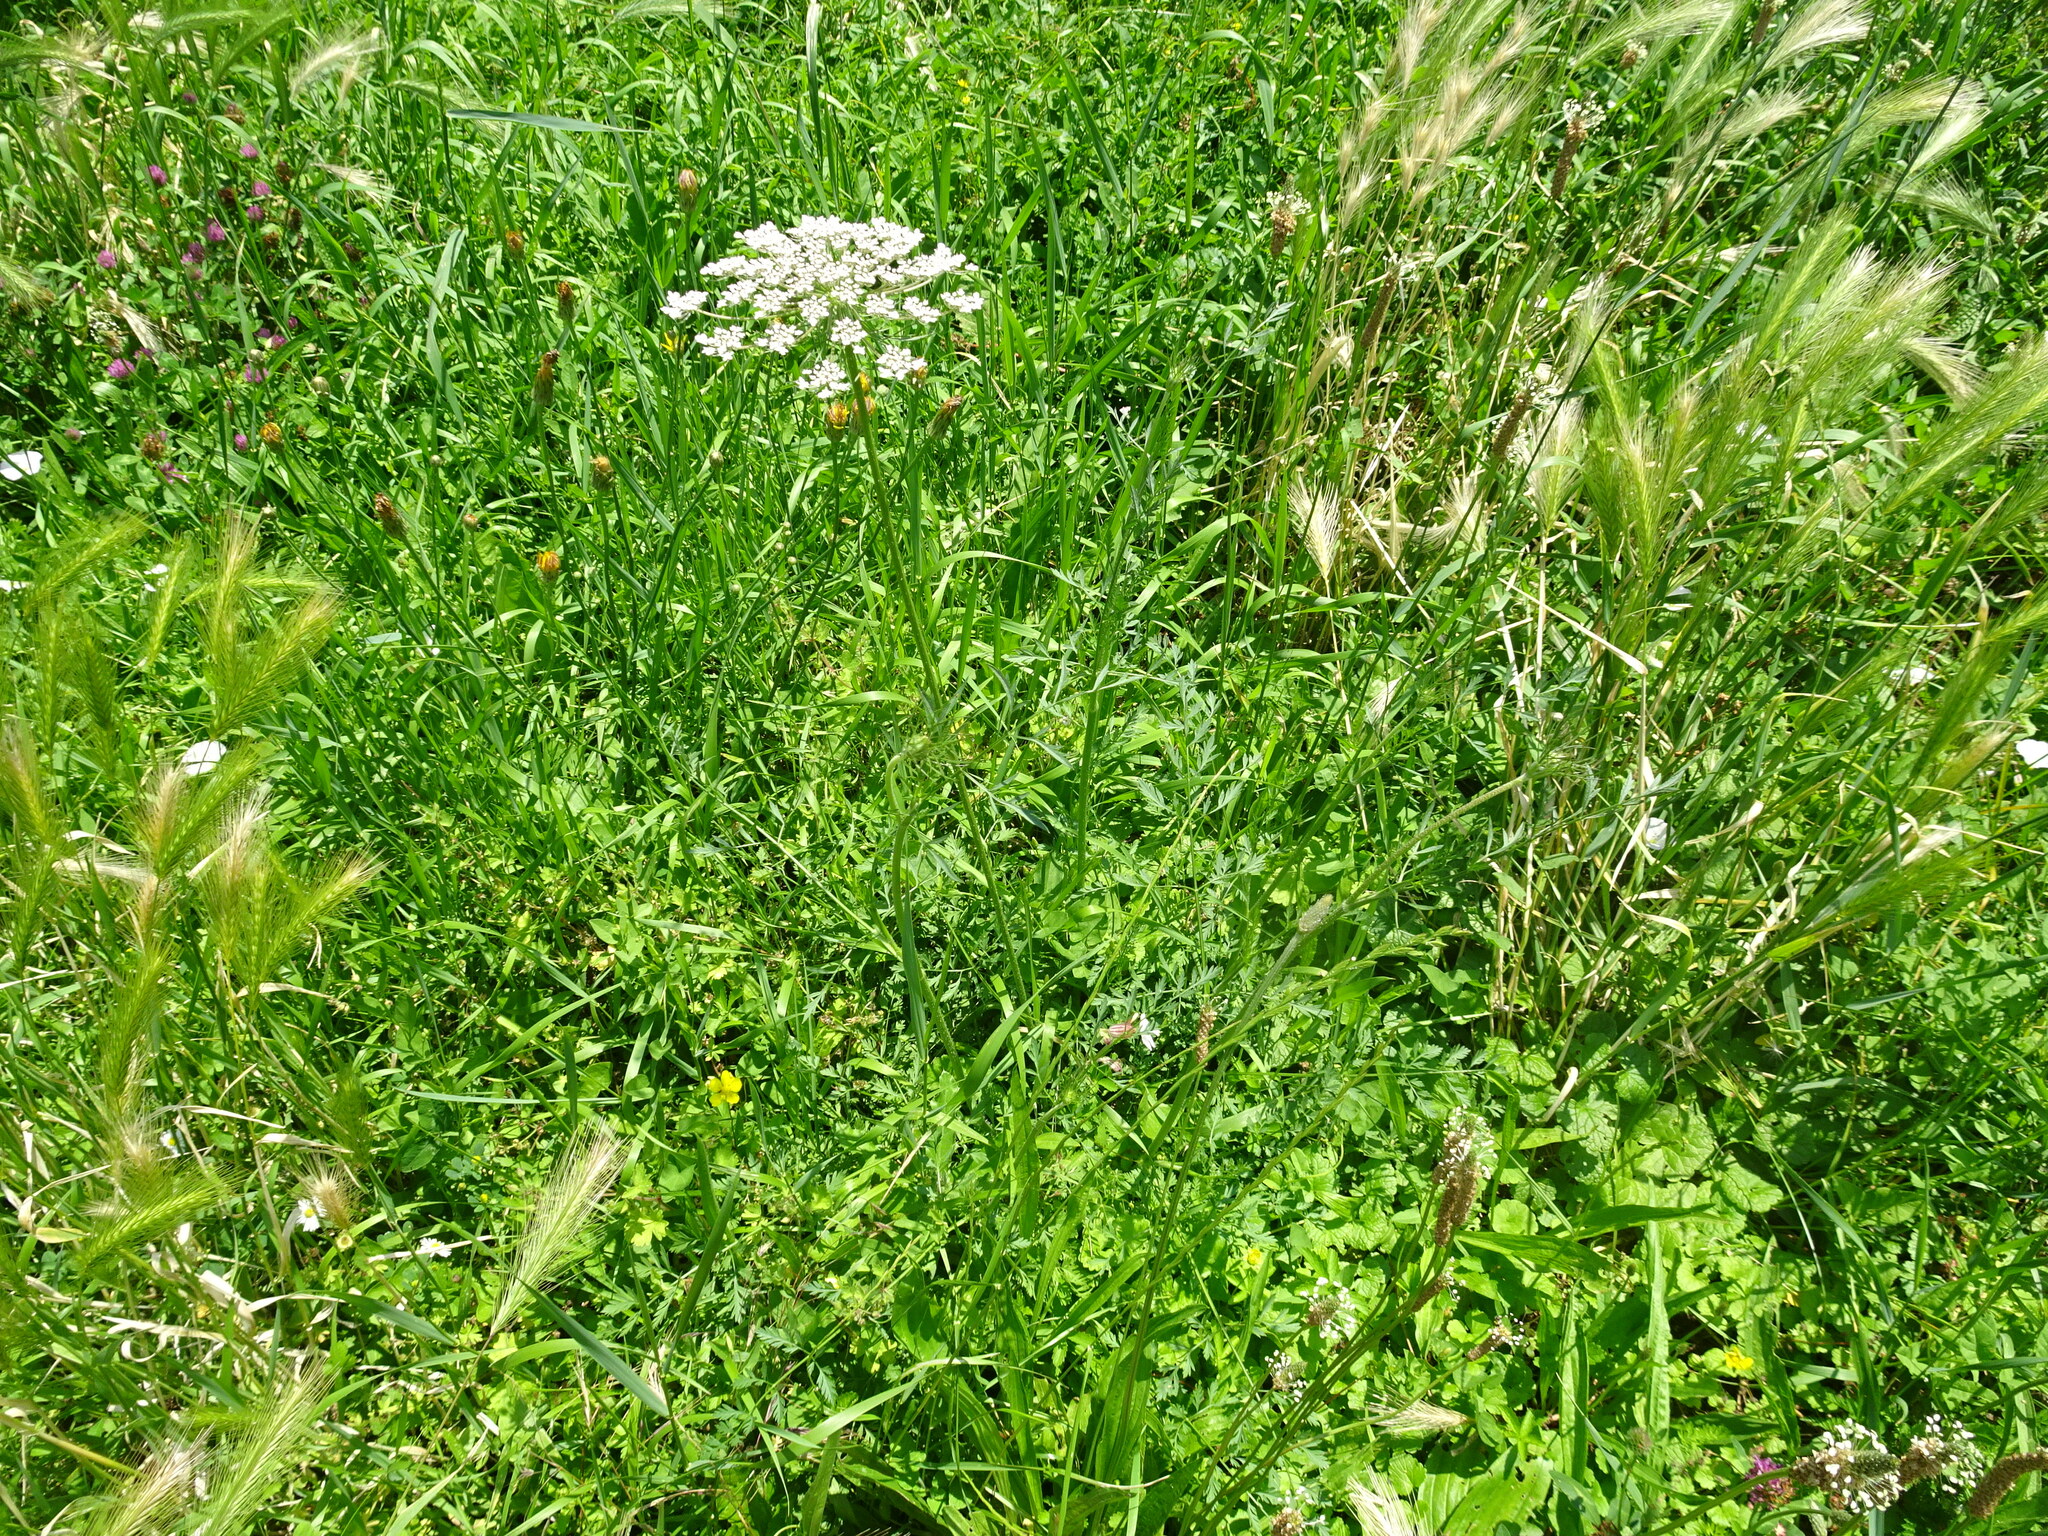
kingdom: Plantae
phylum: Tracheophyta
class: Magnoliopsida
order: Apiales
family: Apiaceae
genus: Daucus
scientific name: Daucus carota
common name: Wild carrot
